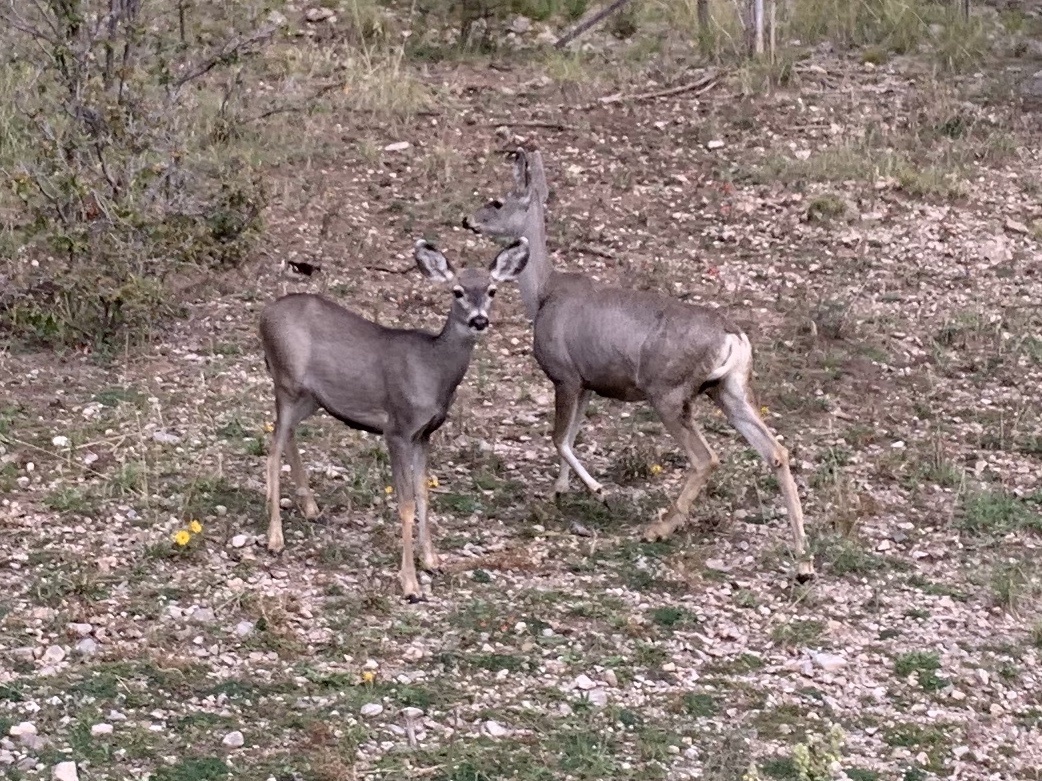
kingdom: Animalia
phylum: Chordata
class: Mammalia
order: Artiodactyla
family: Cervidae
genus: Odocoileus
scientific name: Odocoileus hemionus
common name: Mule deer
